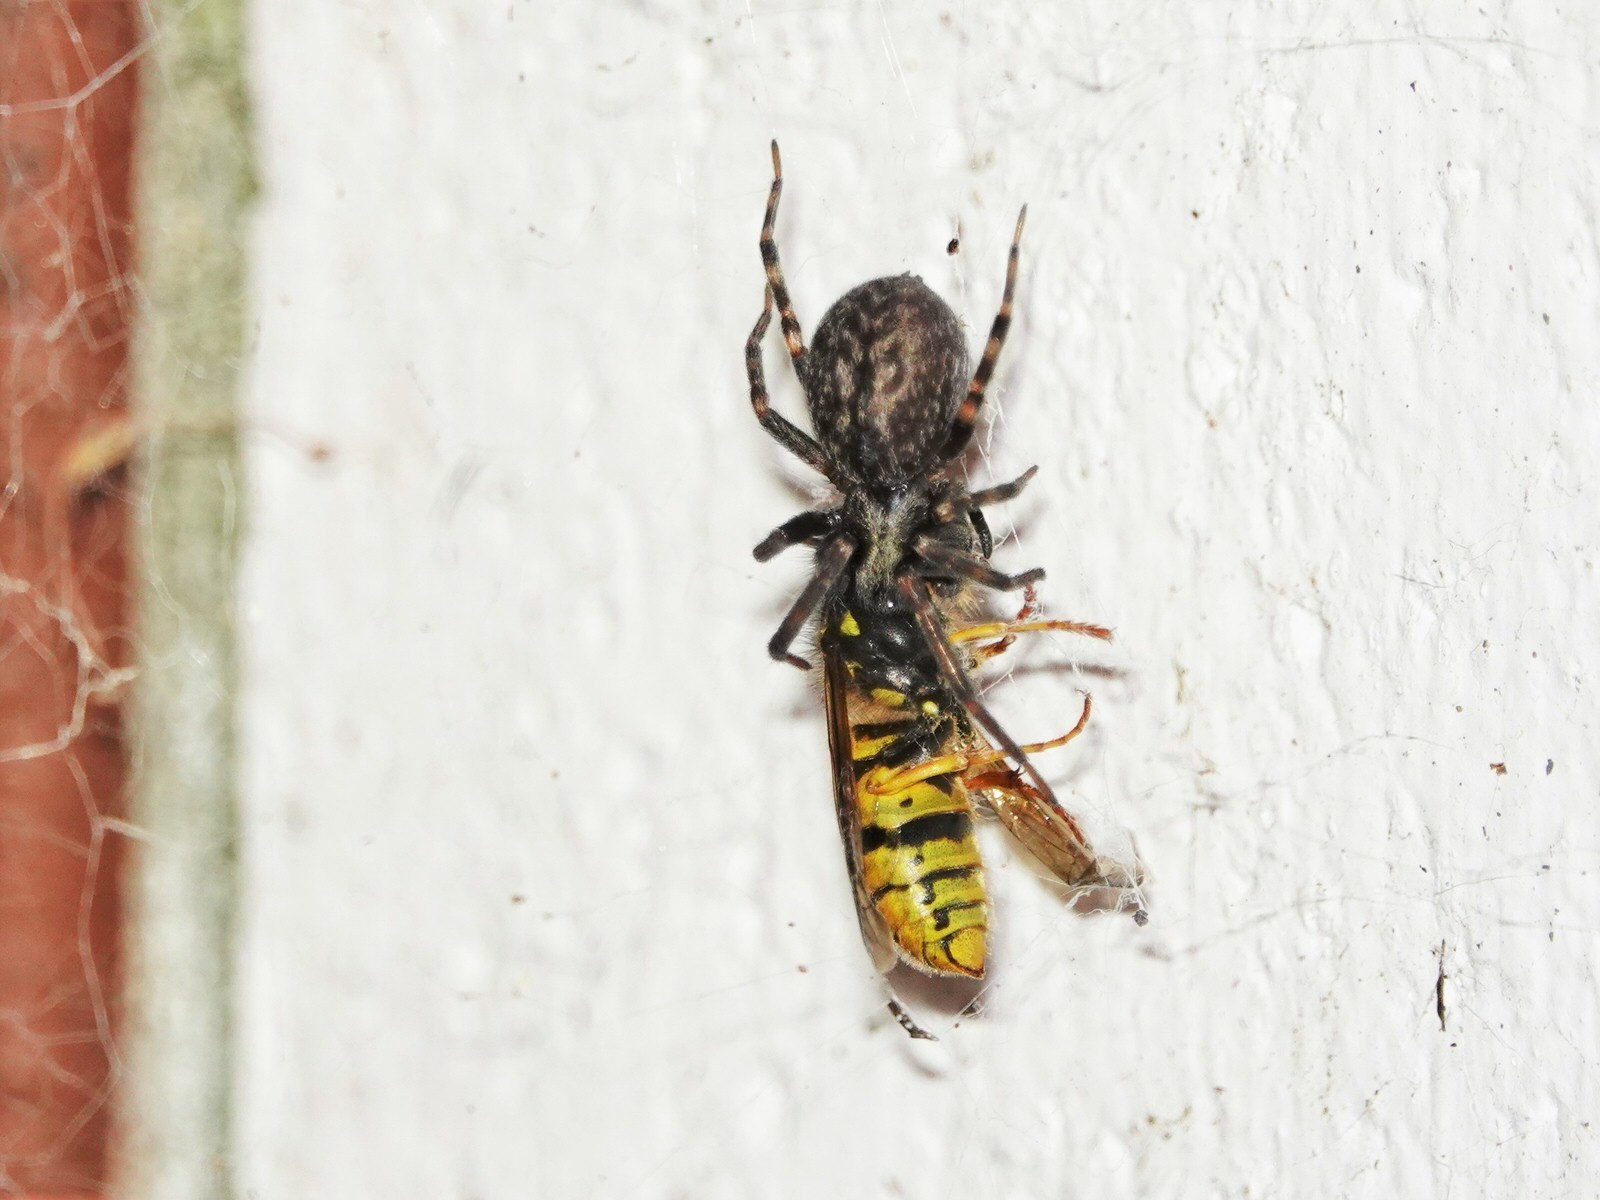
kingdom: Animalia
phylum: Arthropoda
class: Insecta
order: Hymenoptera
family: Vespidae
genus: Vespula
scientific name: Vespula
